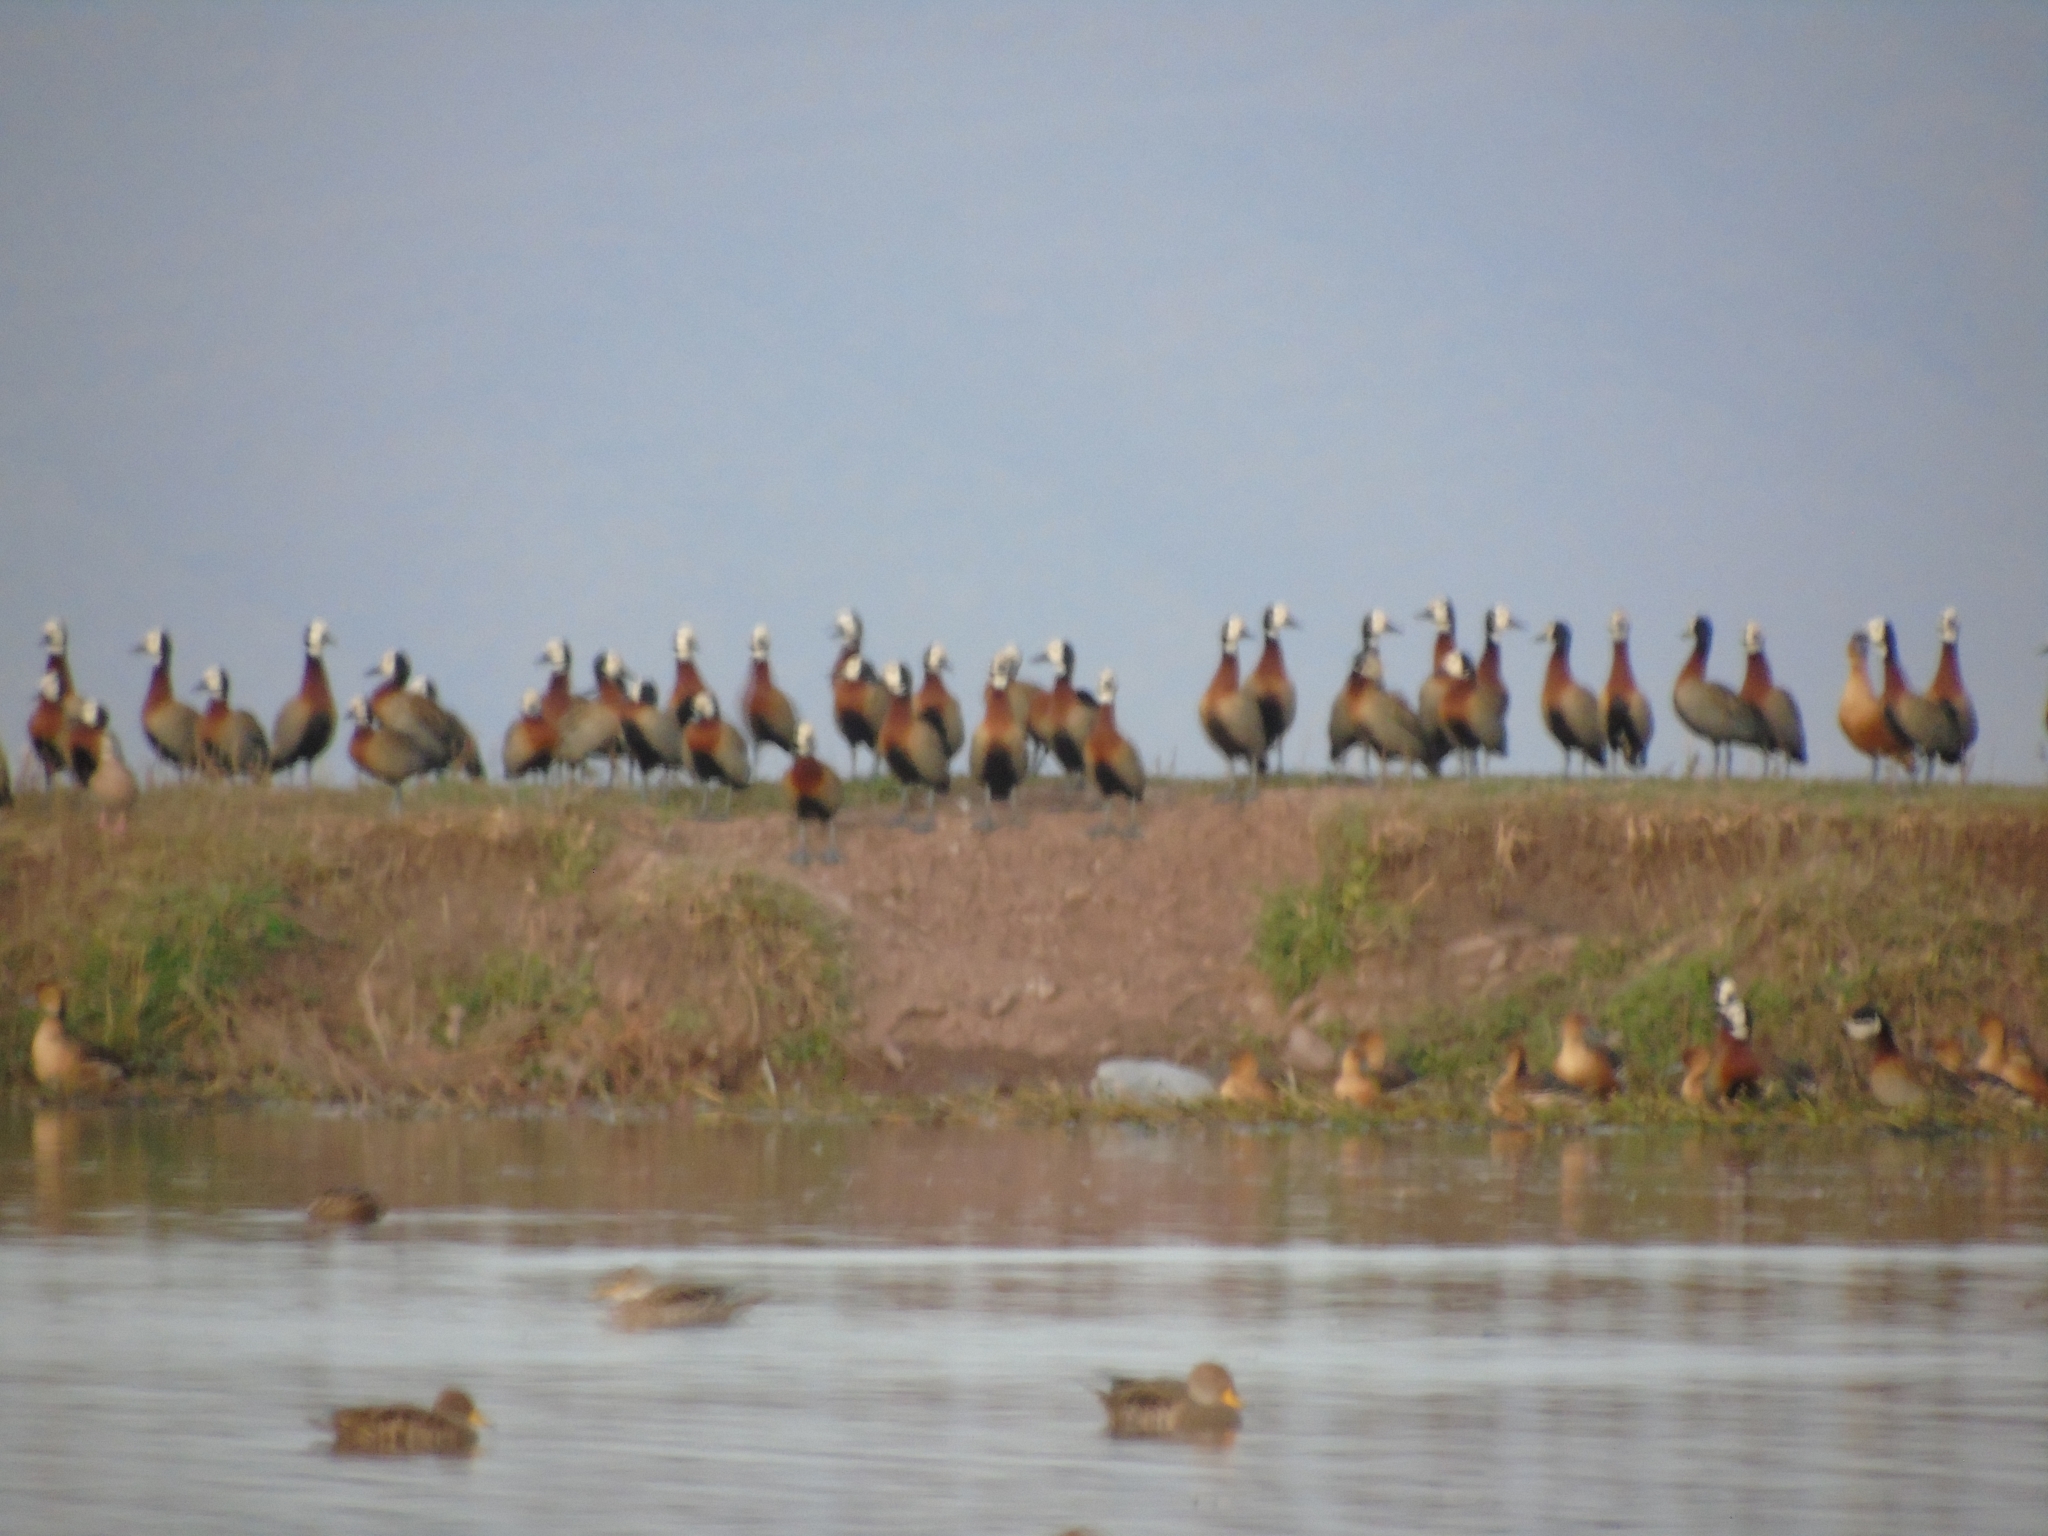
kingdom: Animalia
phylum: Chordata
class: Aves
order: Anseriformes
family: Anatidae
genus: Dendrocygna
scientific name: Dendrocygna viduata
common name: White-faced whistling duck
